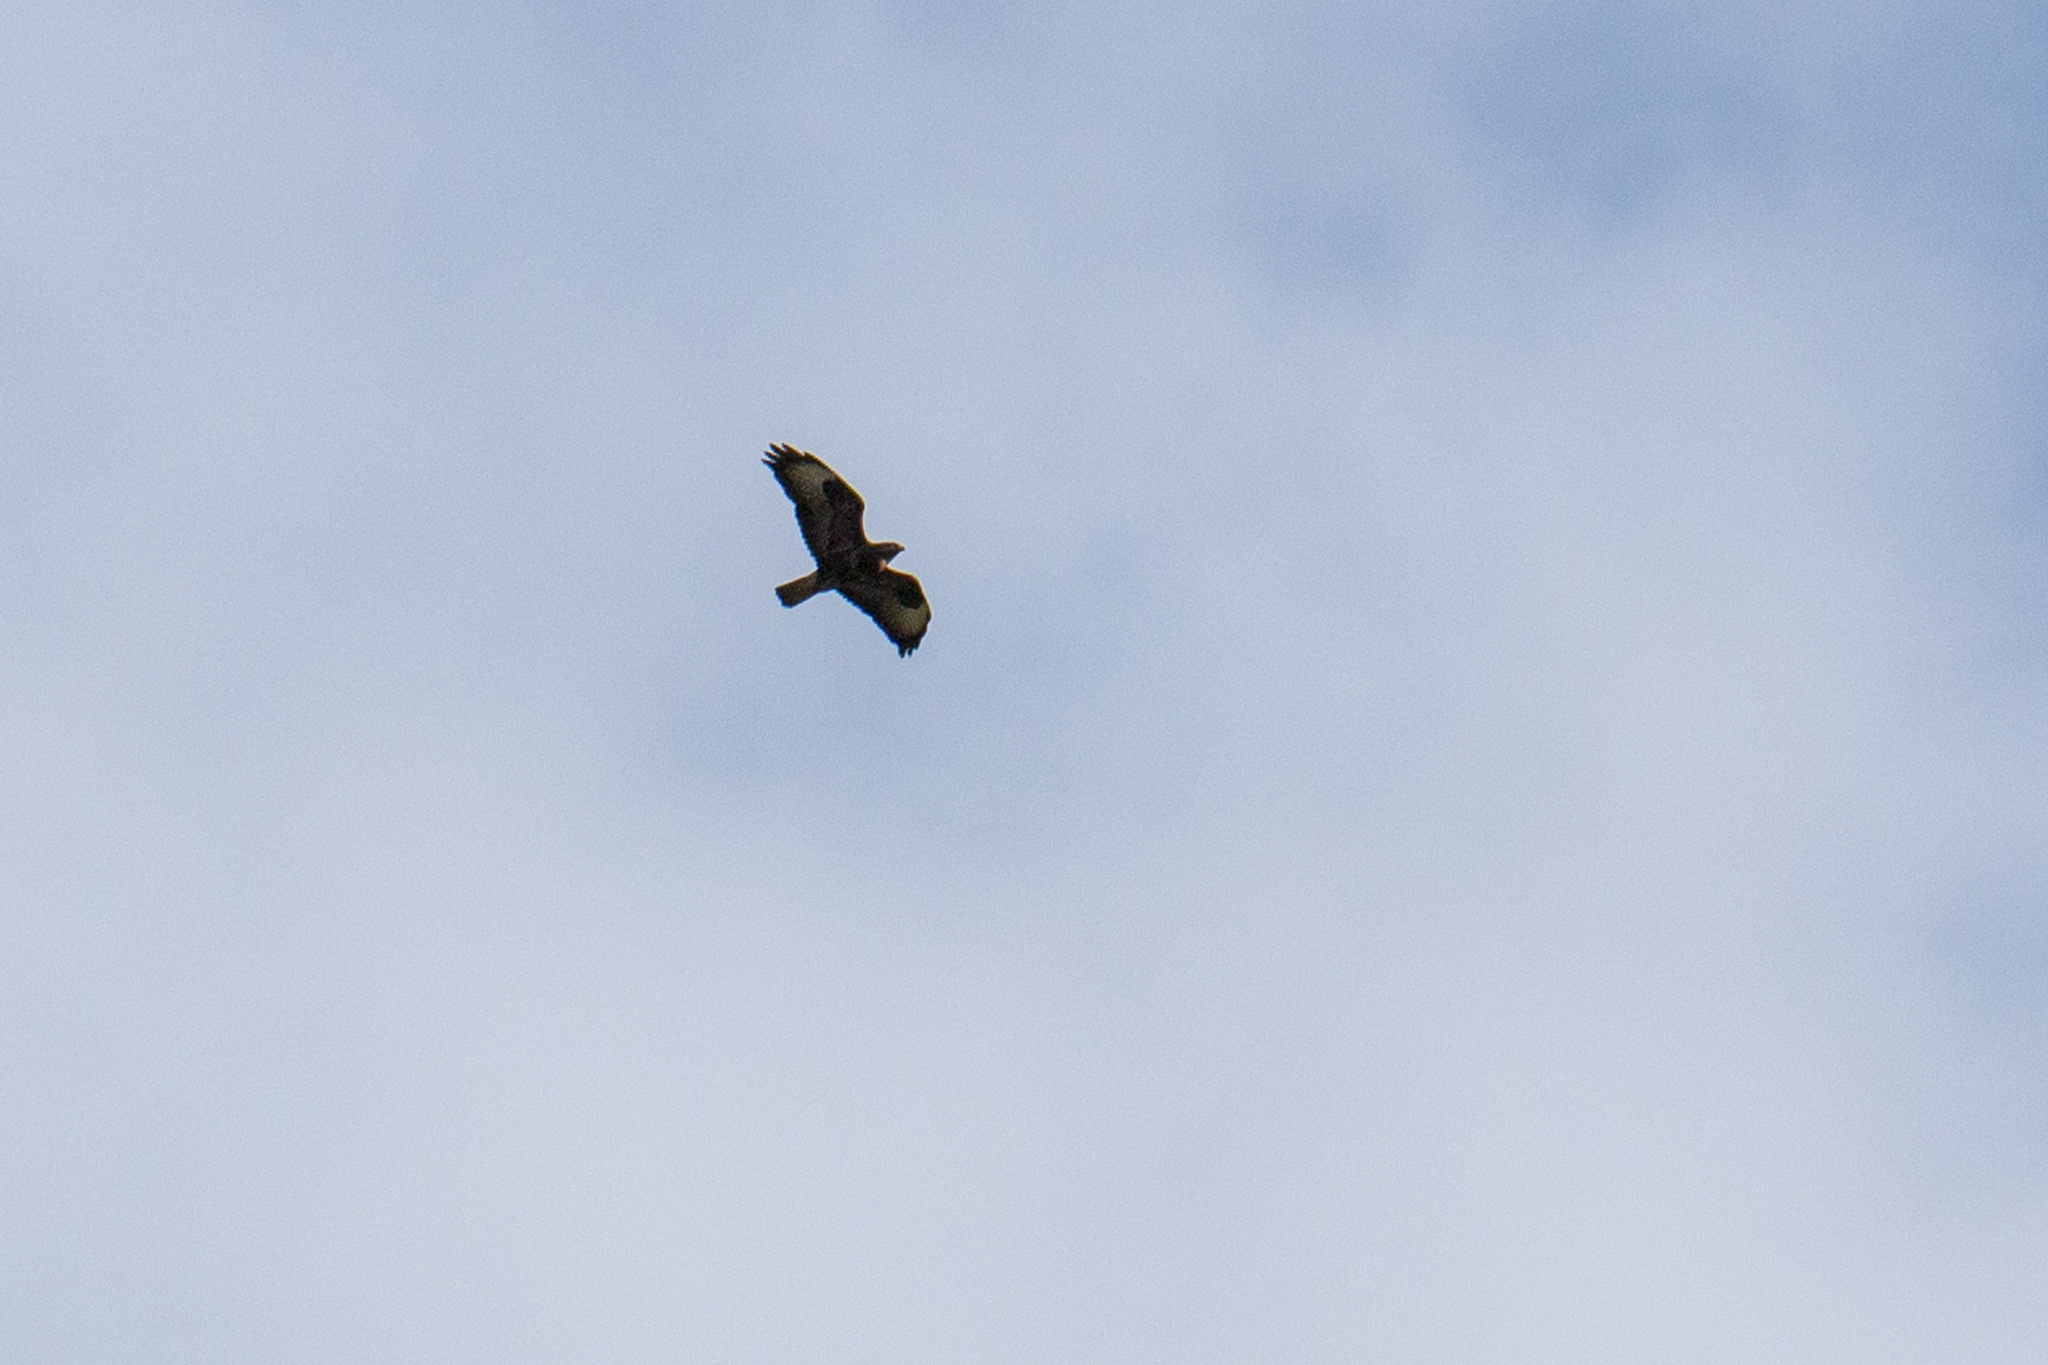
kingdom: Animalia
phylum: Chordata
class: Aves
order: Accipitriformes
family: Accipitridae
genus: Buteo
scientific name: Buteo buteo
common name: Common buzzard
